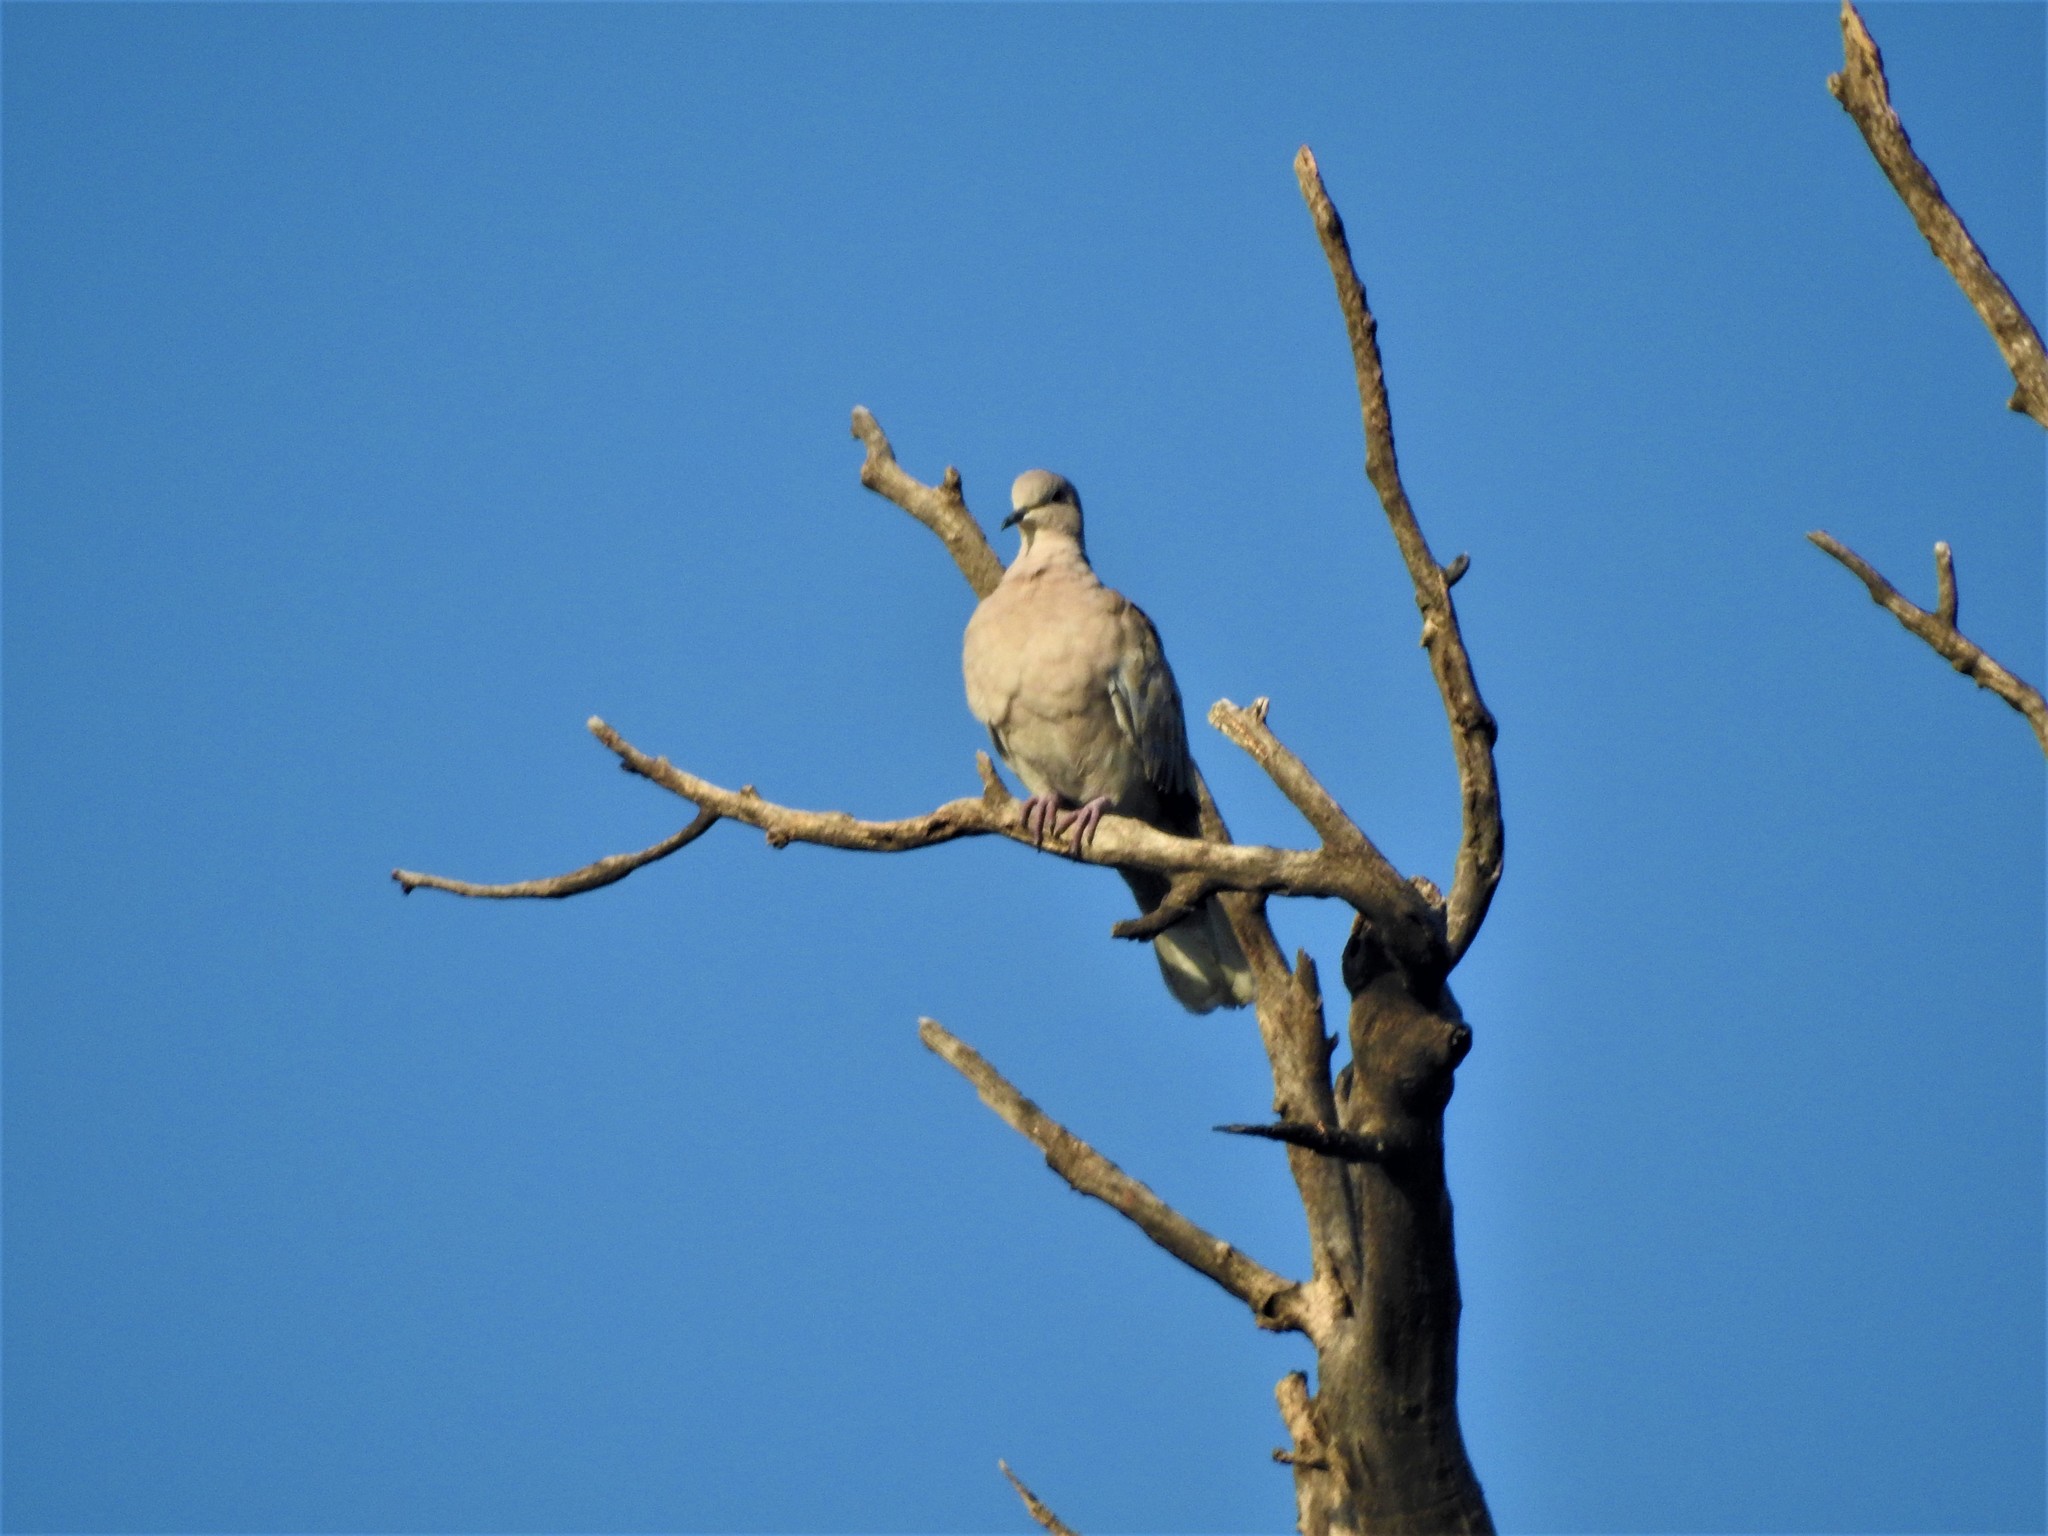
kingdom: Animalia
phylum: Chordata
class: Aves
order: Columbiformes
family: Columbidae
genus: Streptopelia
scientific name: Streptopelia decaocto
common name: Eurasian collared dove
